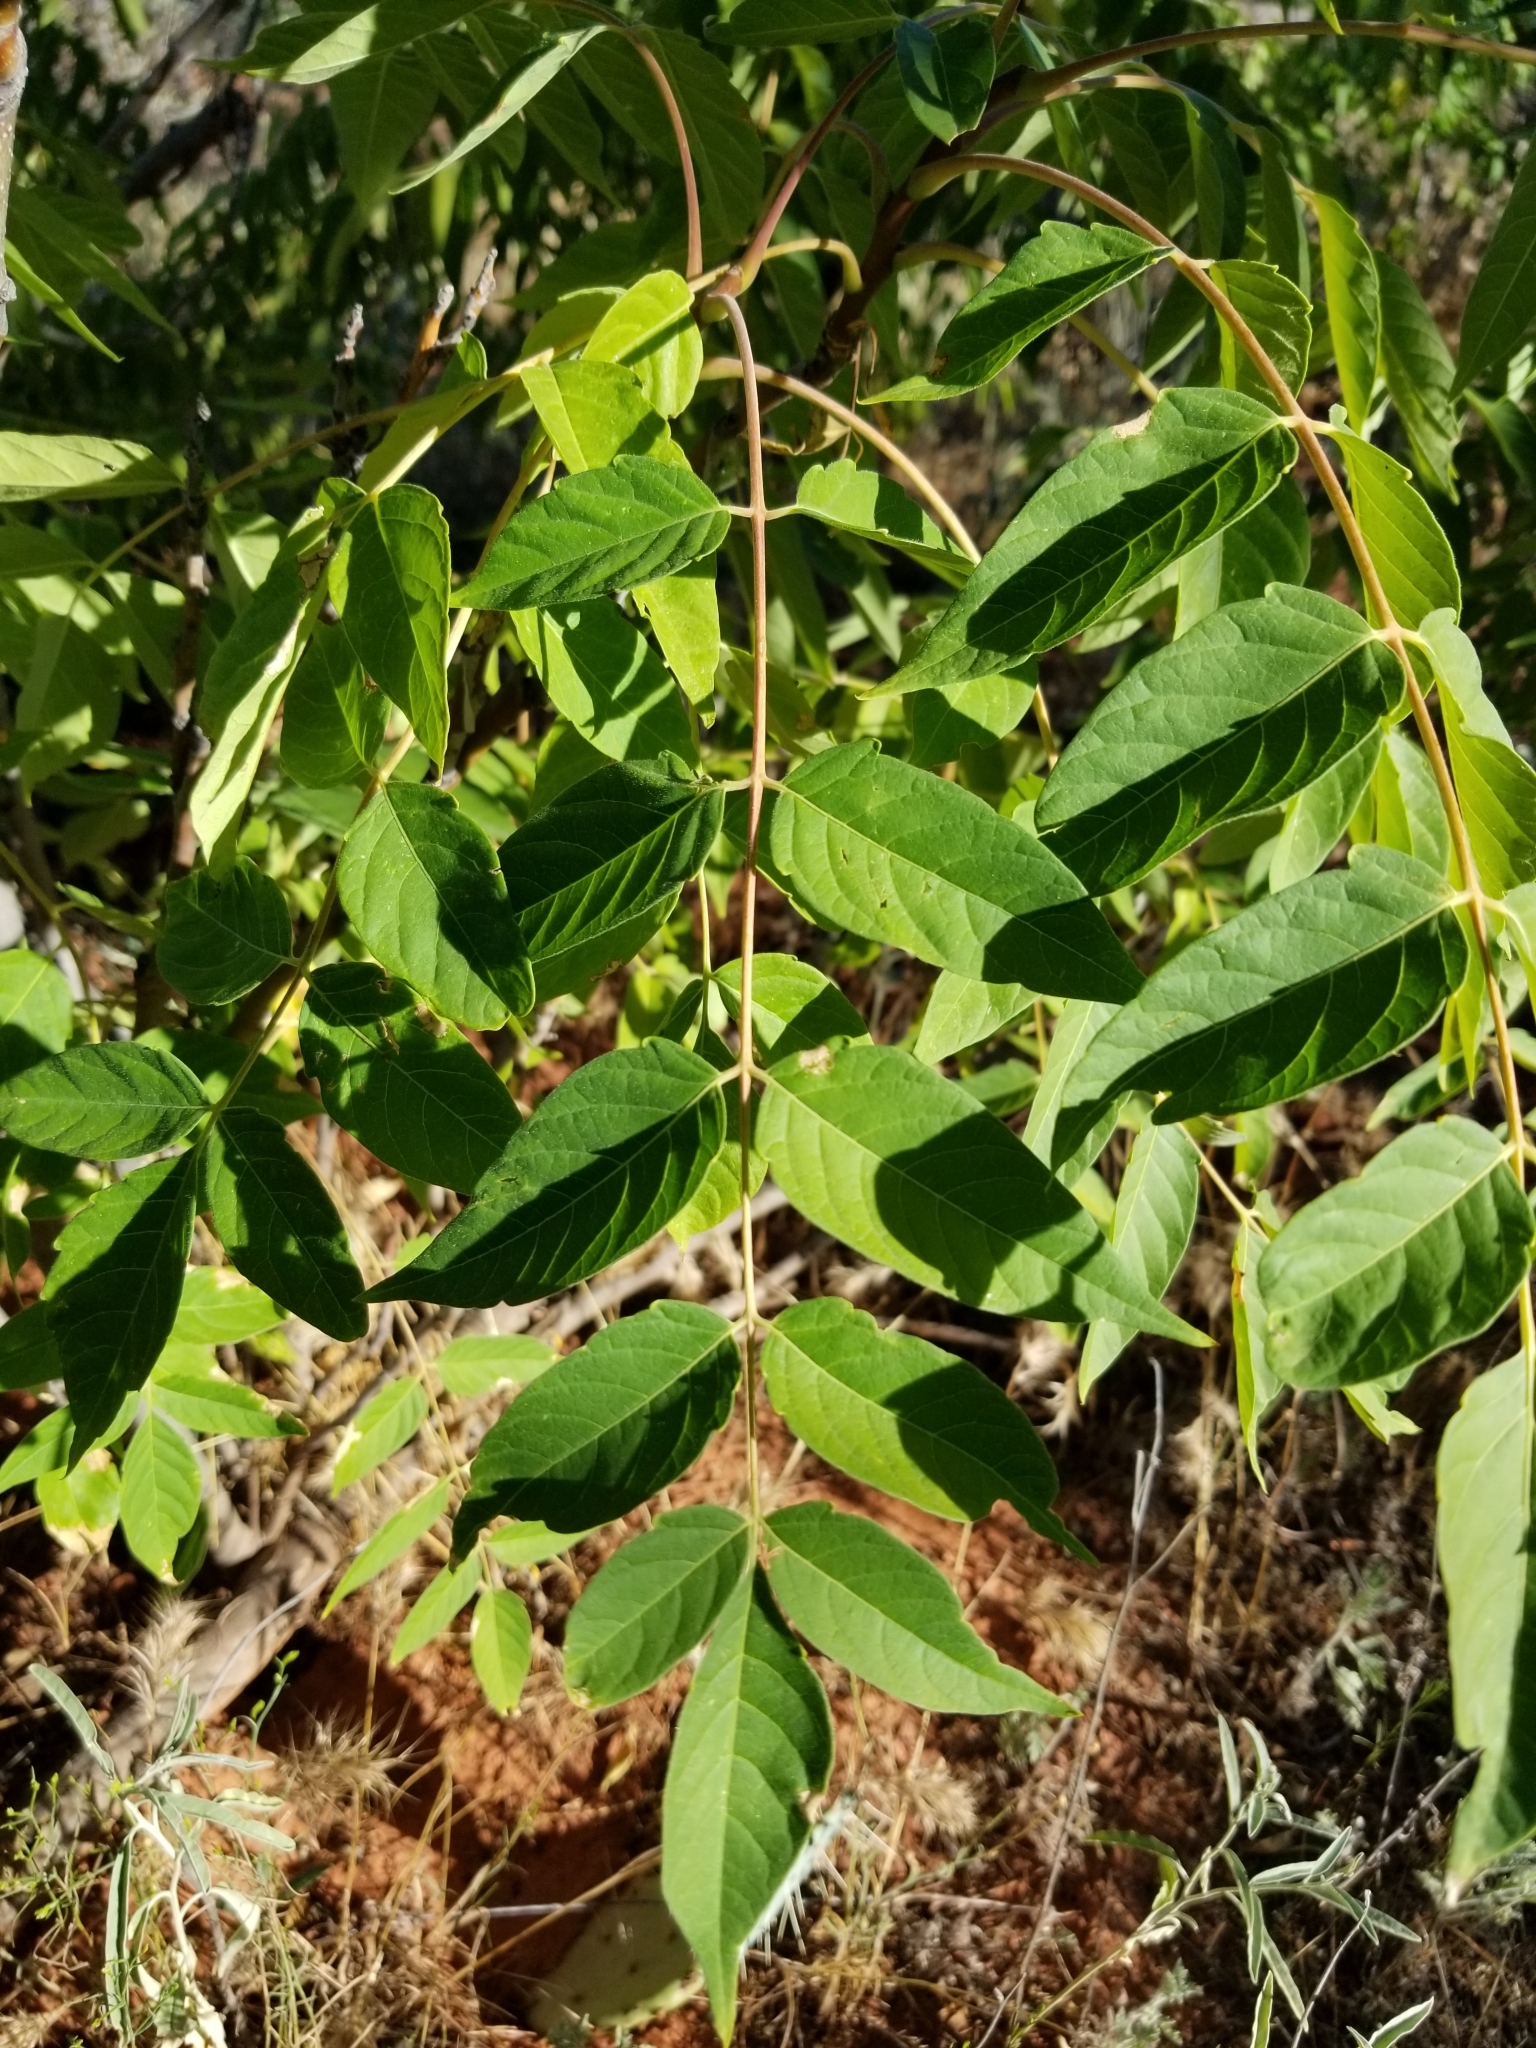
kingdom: Plantae
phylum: Tracheophyta
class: Magnoliopsida
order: Sapindales
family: Simaroubaceae
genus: Ailanthus
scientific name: Ailanthus altissima
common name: Tree-of-heaven
